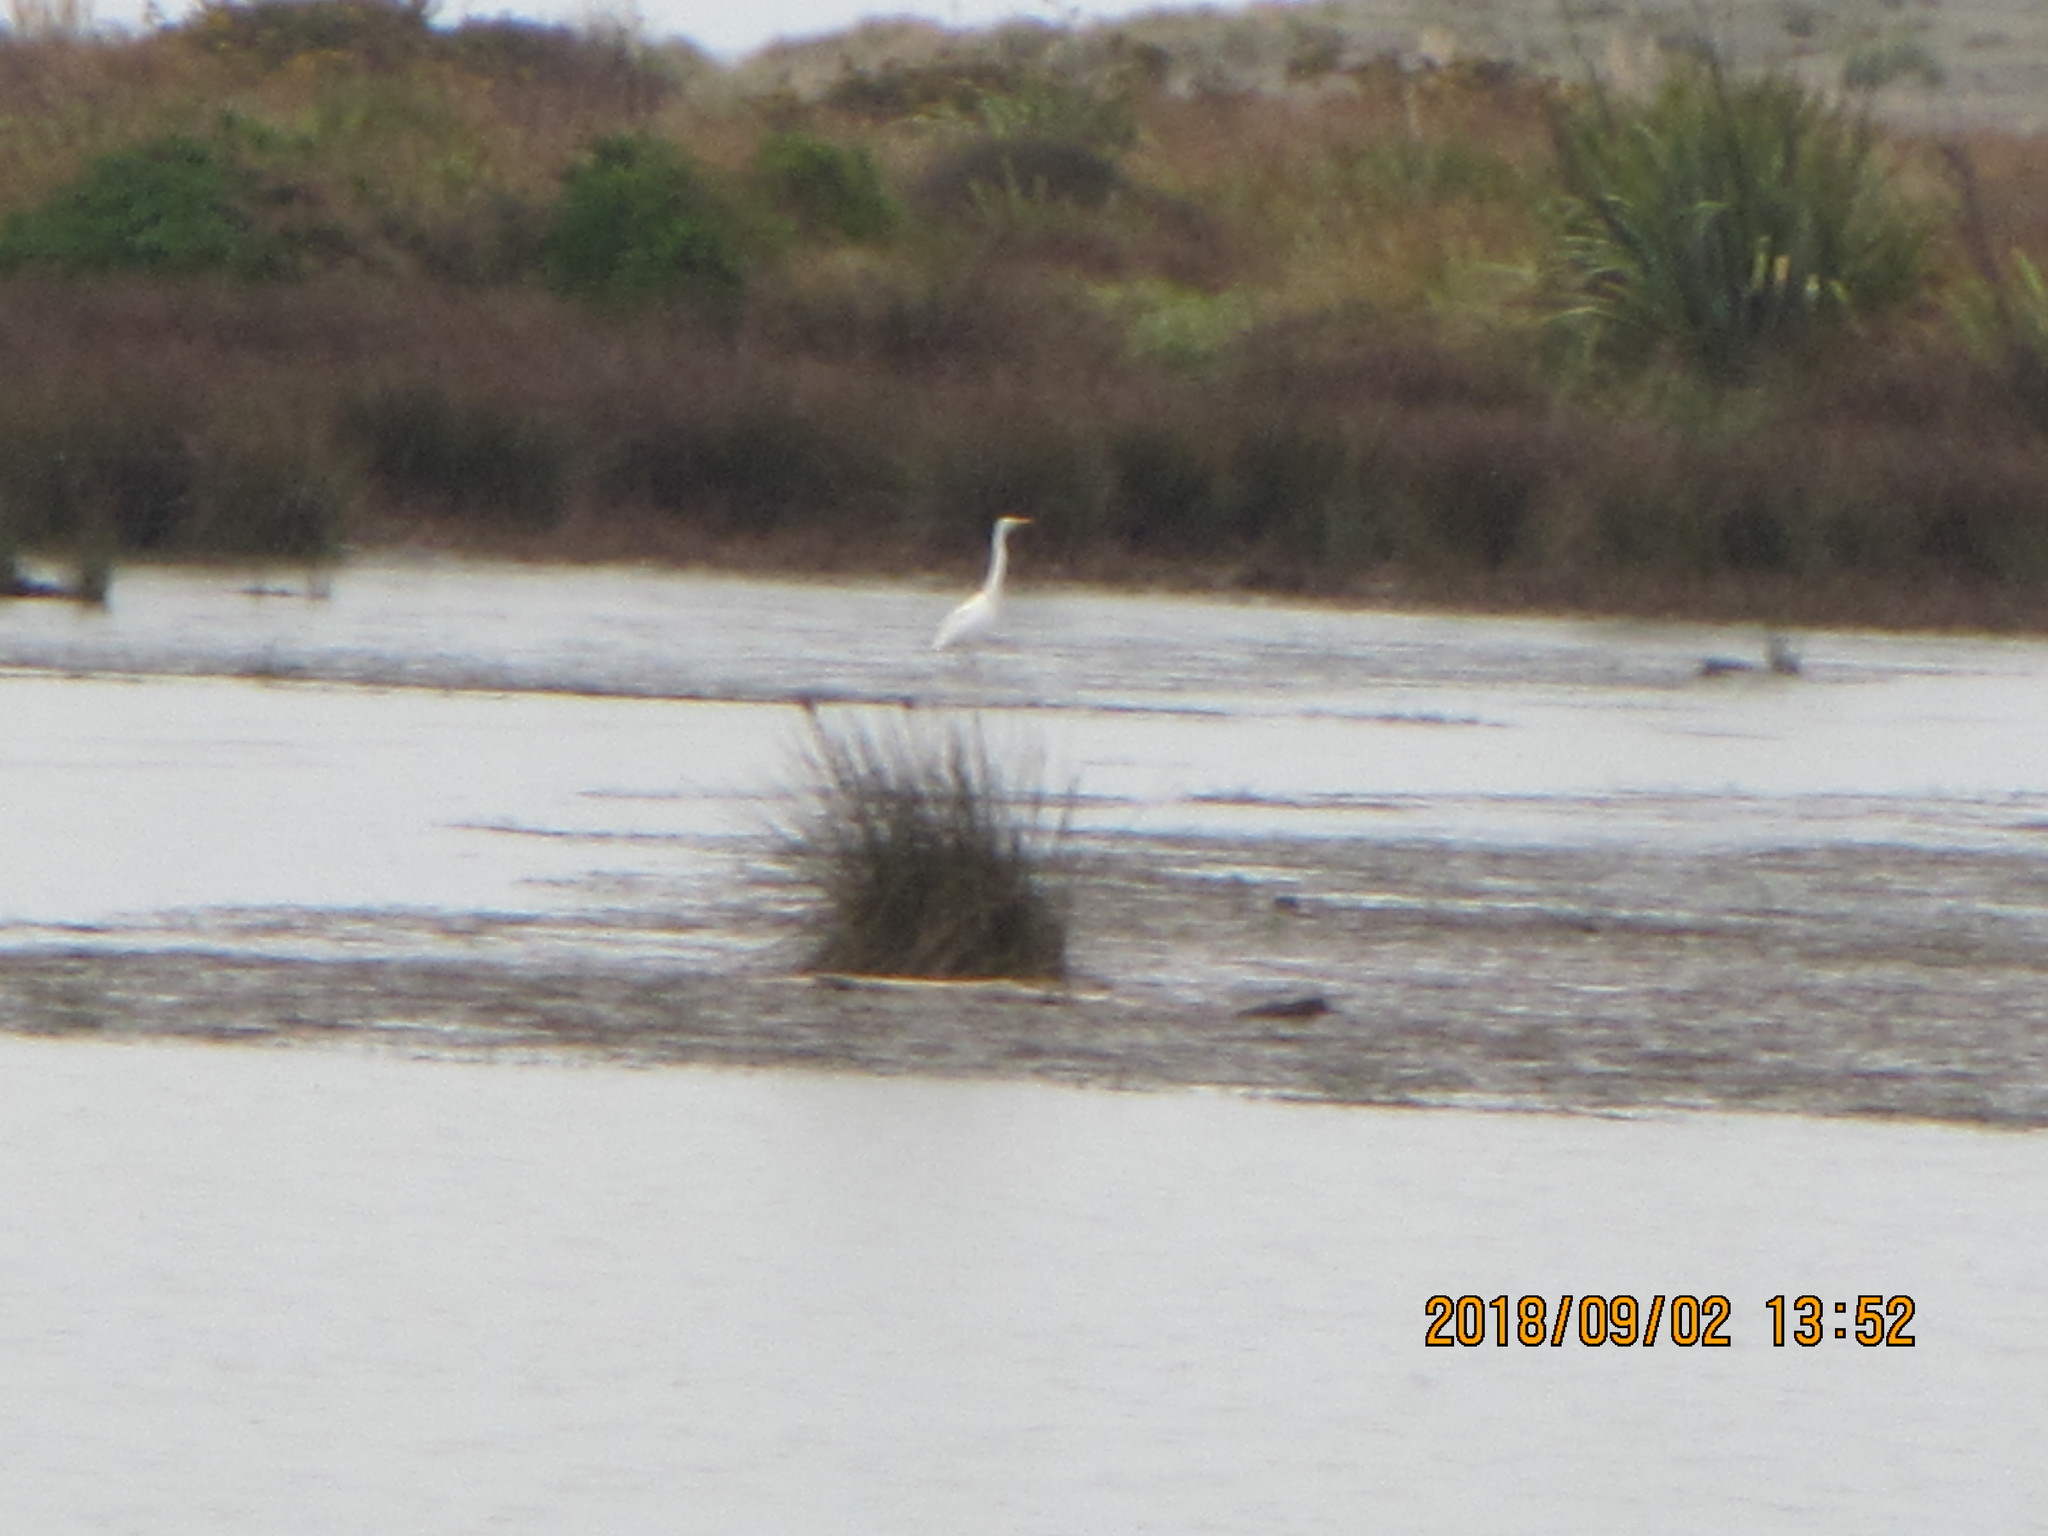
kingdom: Animalia
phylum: Chordata
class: Aves
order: Pelecaniformes
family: Ardeidae
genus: Ardea
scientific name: Ardea modesta
